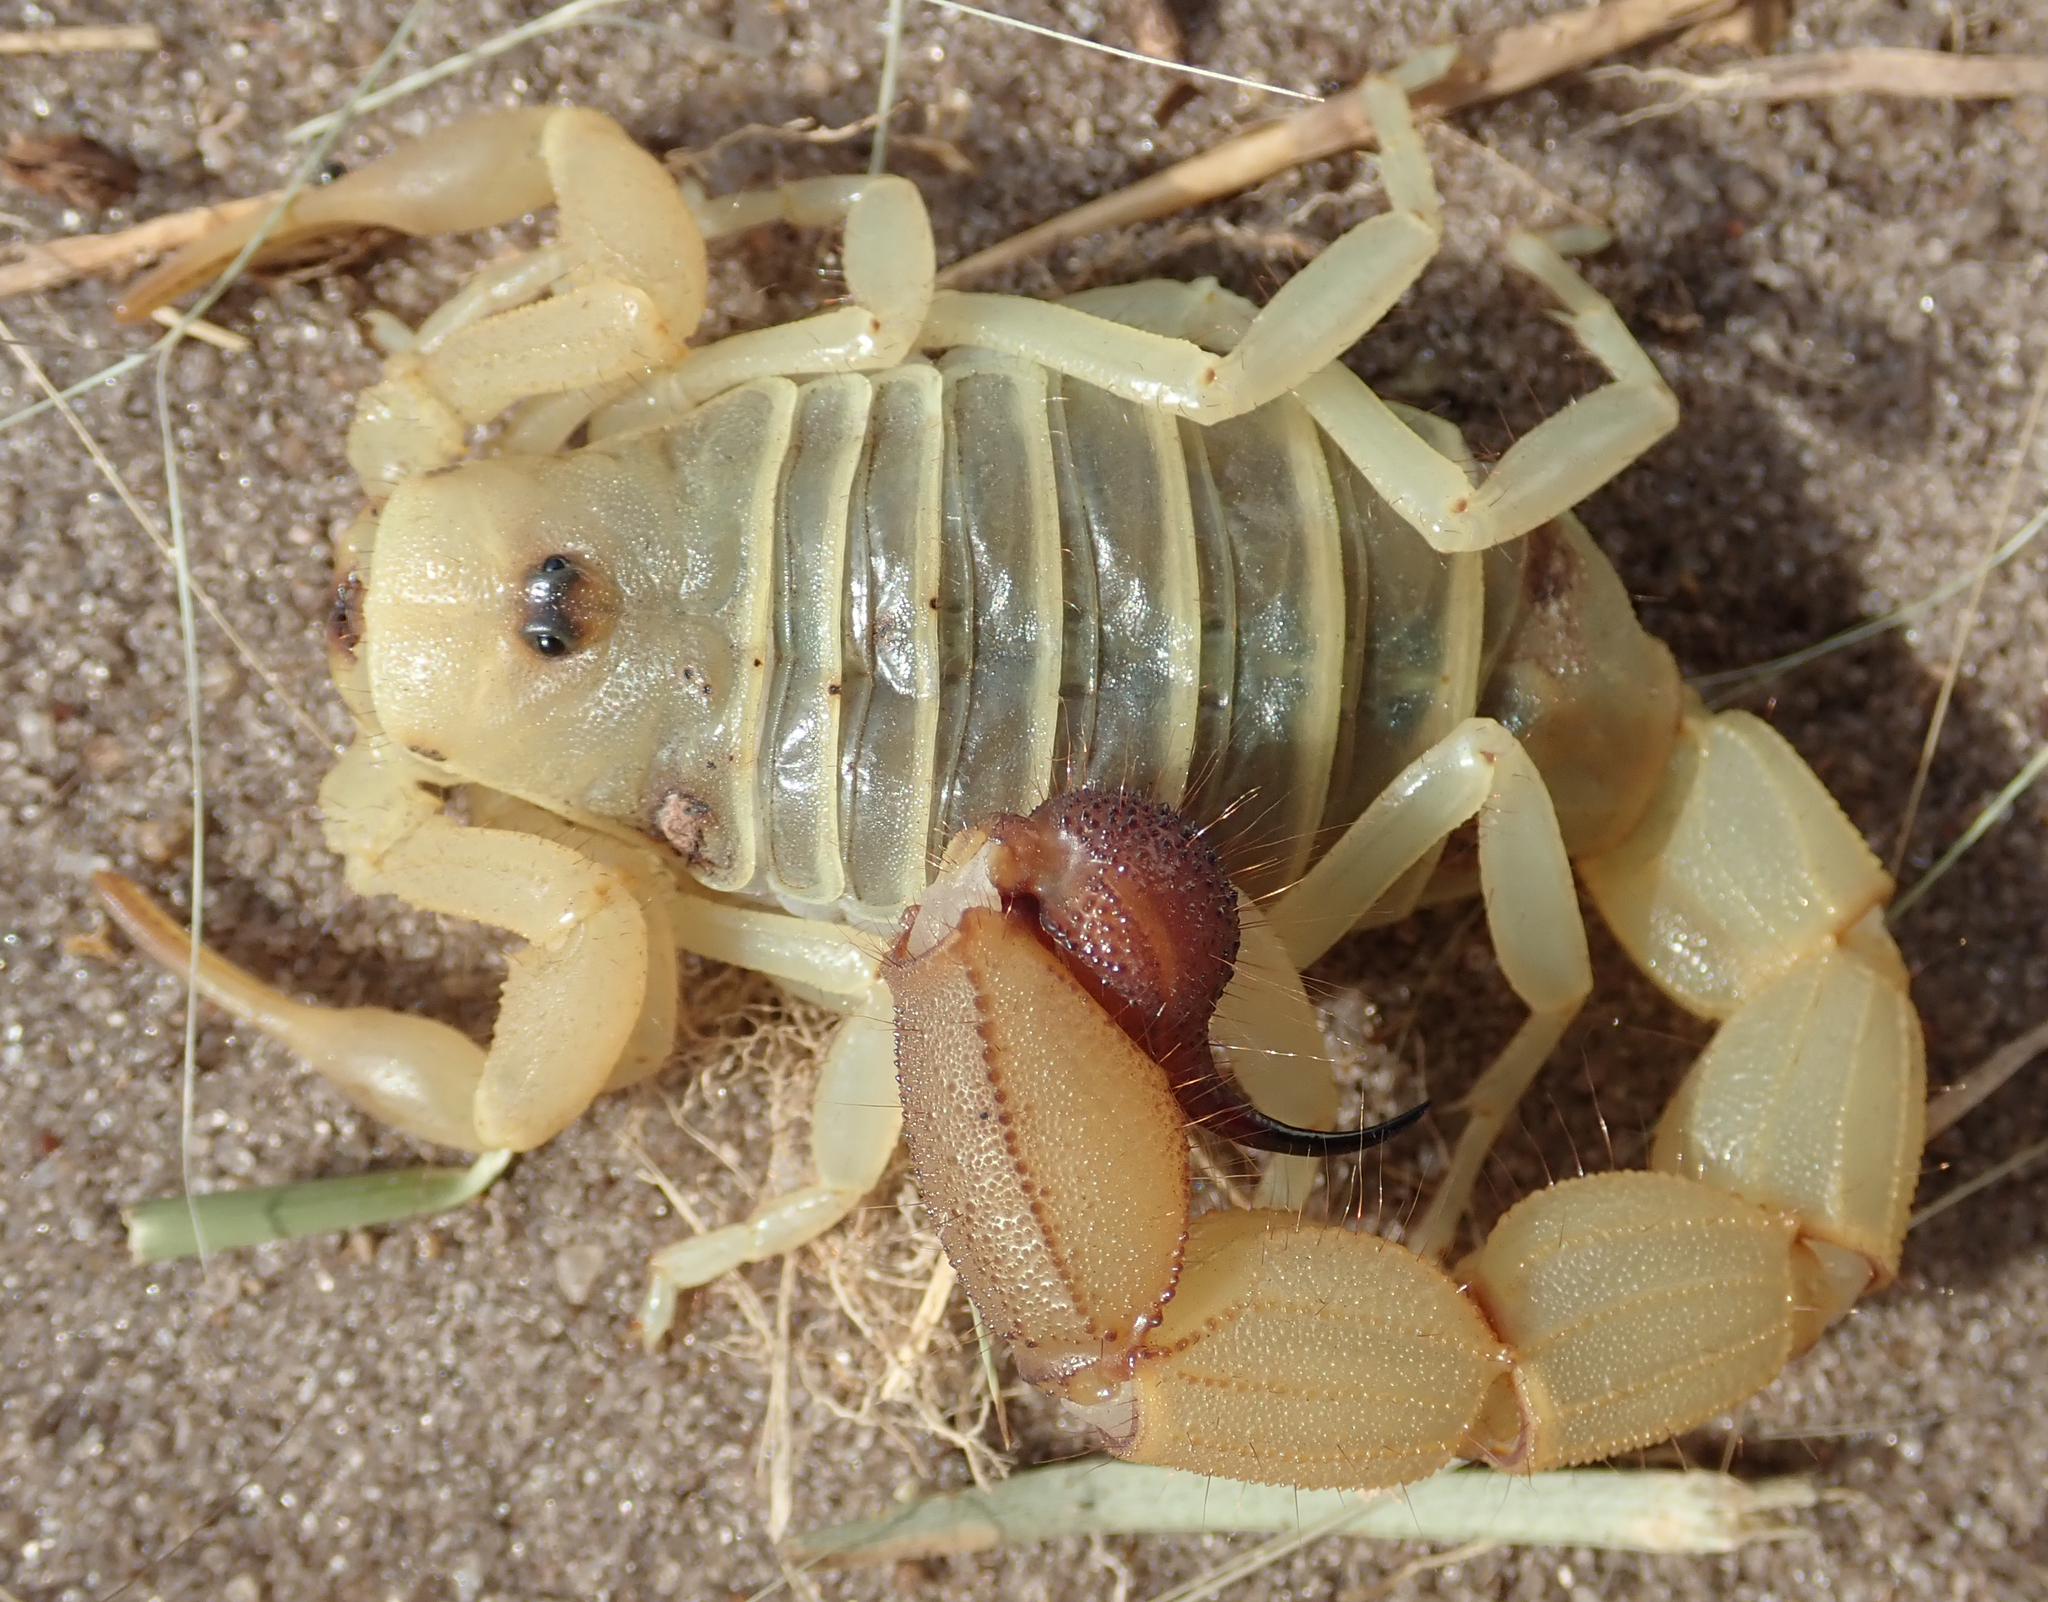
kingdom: Animalia
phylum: Arthropoda
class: Arachnida
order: Scorpiones
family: Buthidae
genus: Parabuthus
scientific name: Parabuthus raudus
